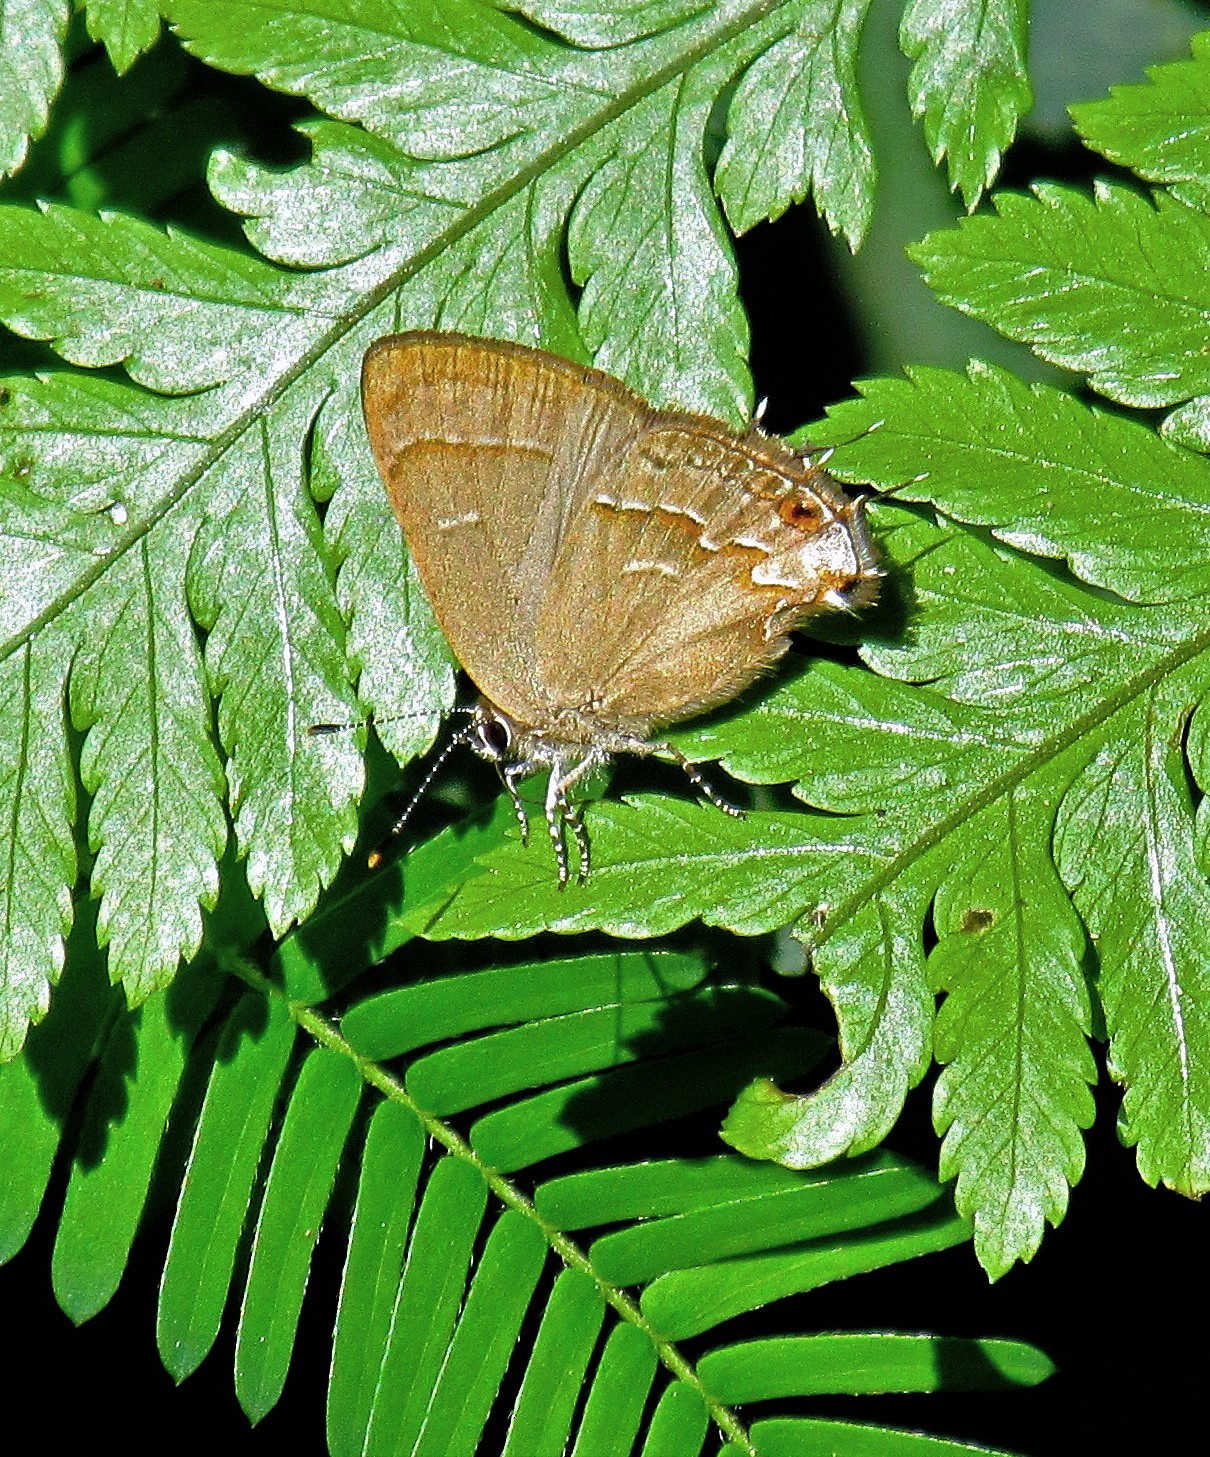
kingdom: Animalia
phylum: Arthropoda
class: Insecta
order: Lepidoptera
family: Lycaenidae
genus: Arzecla
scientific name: Arzecla tucumanensis
